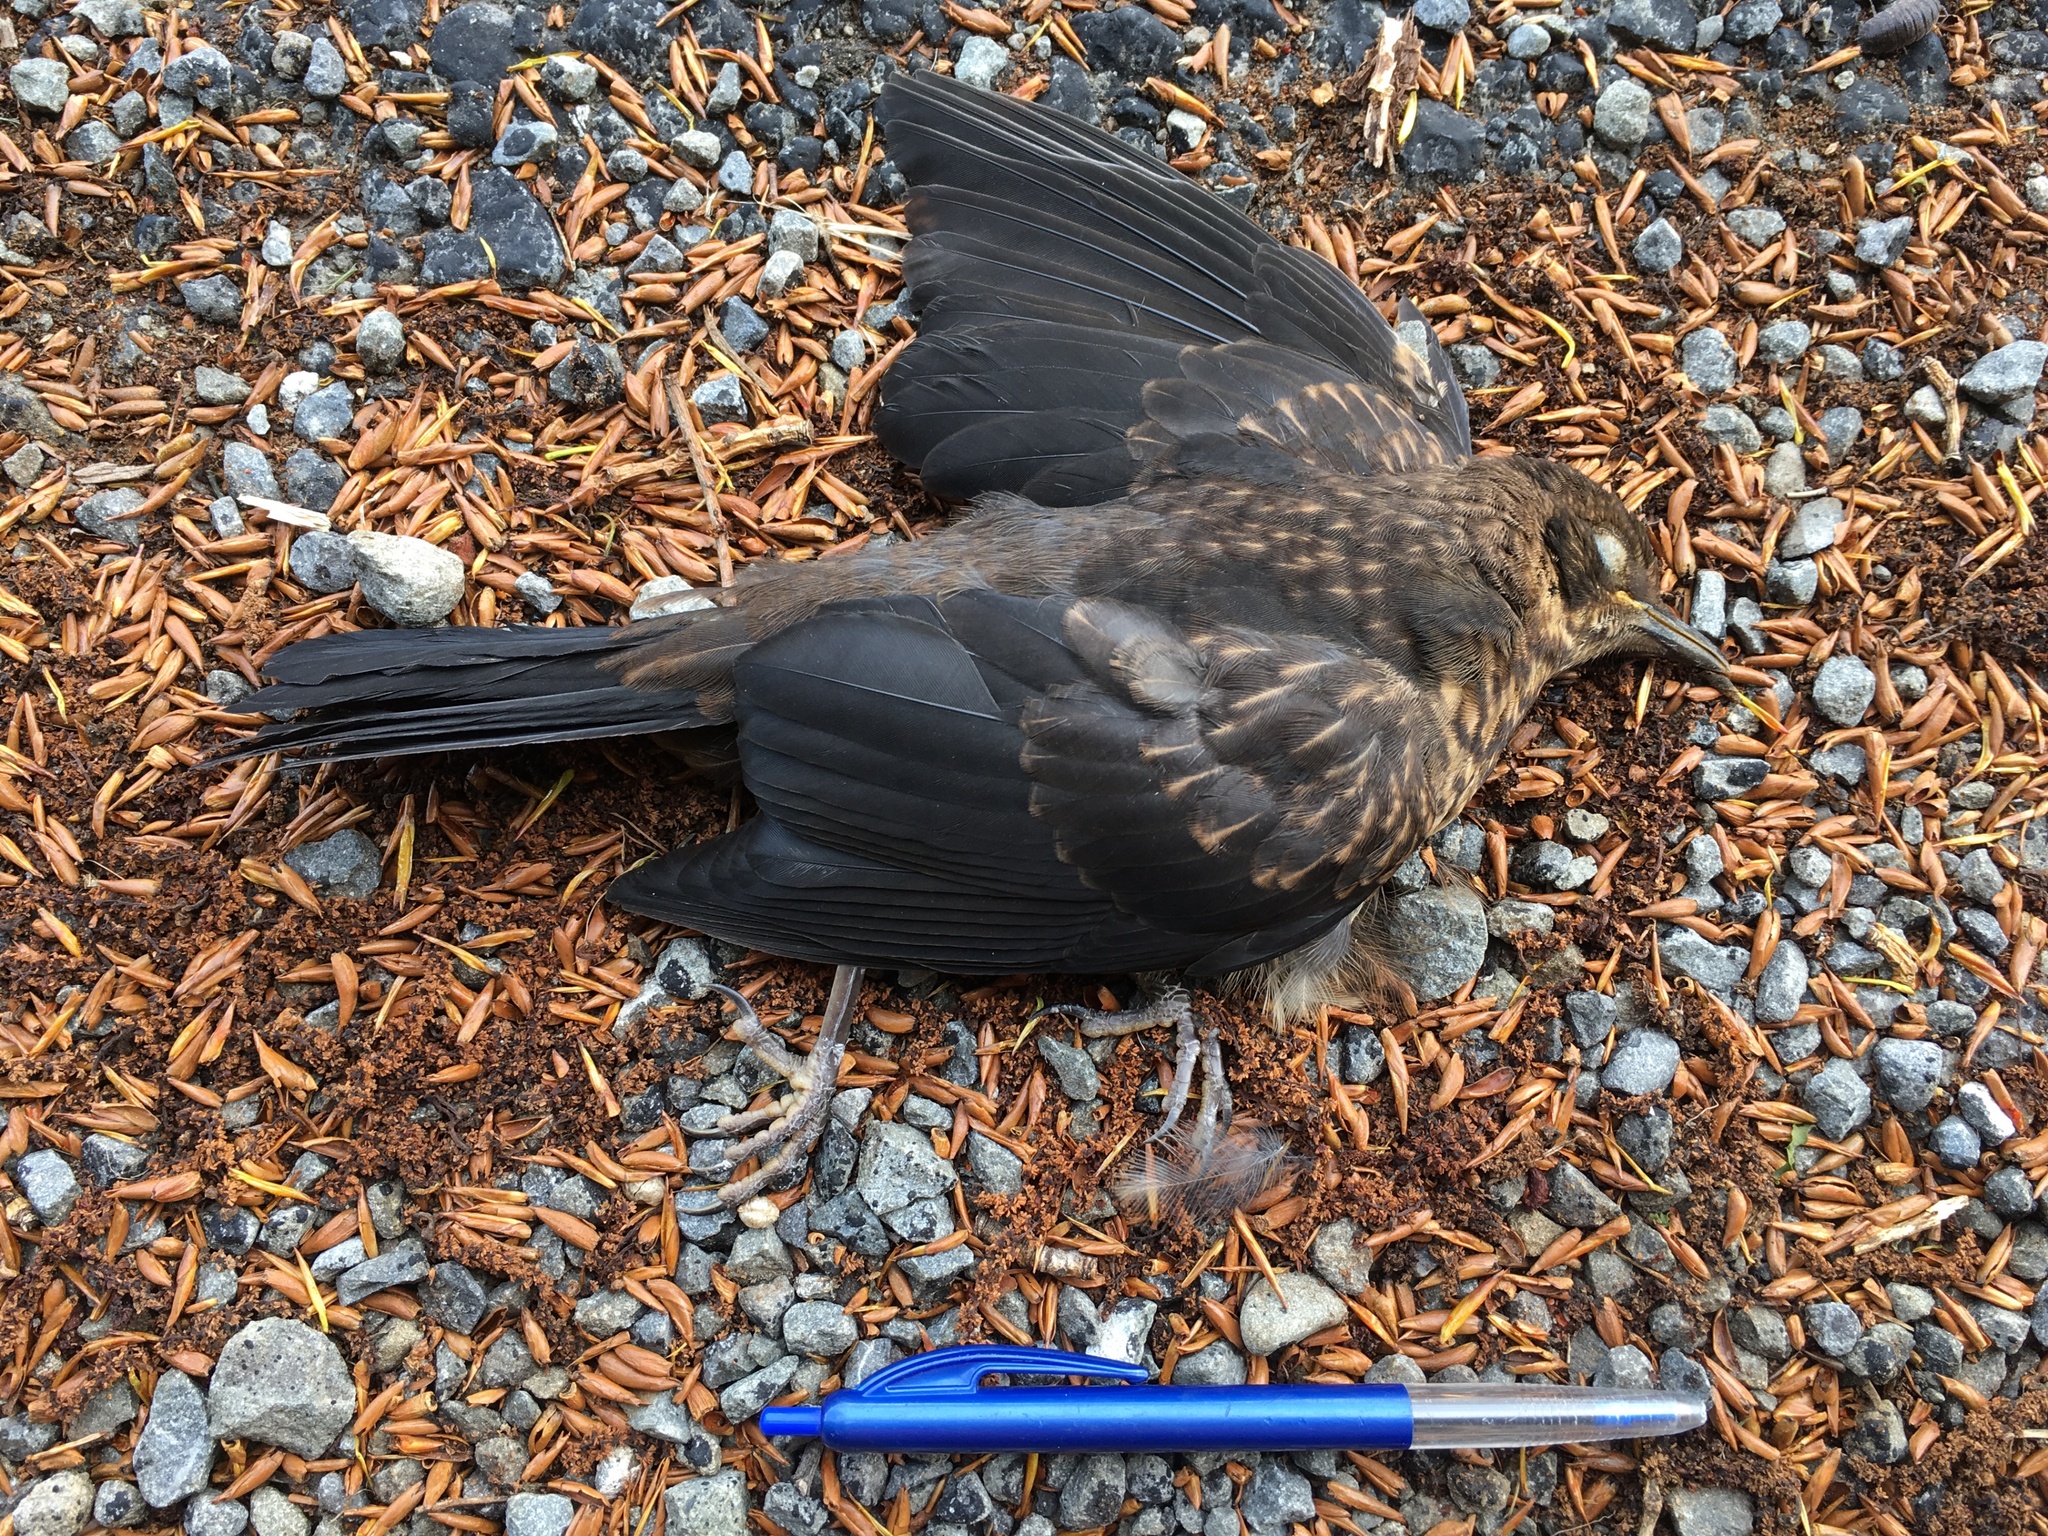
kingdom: Animalia
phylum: Chordata
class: Aves
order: Passeriformes
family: Turdidae
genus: Turdus
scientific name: Turdus merula
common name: Common blackbird
